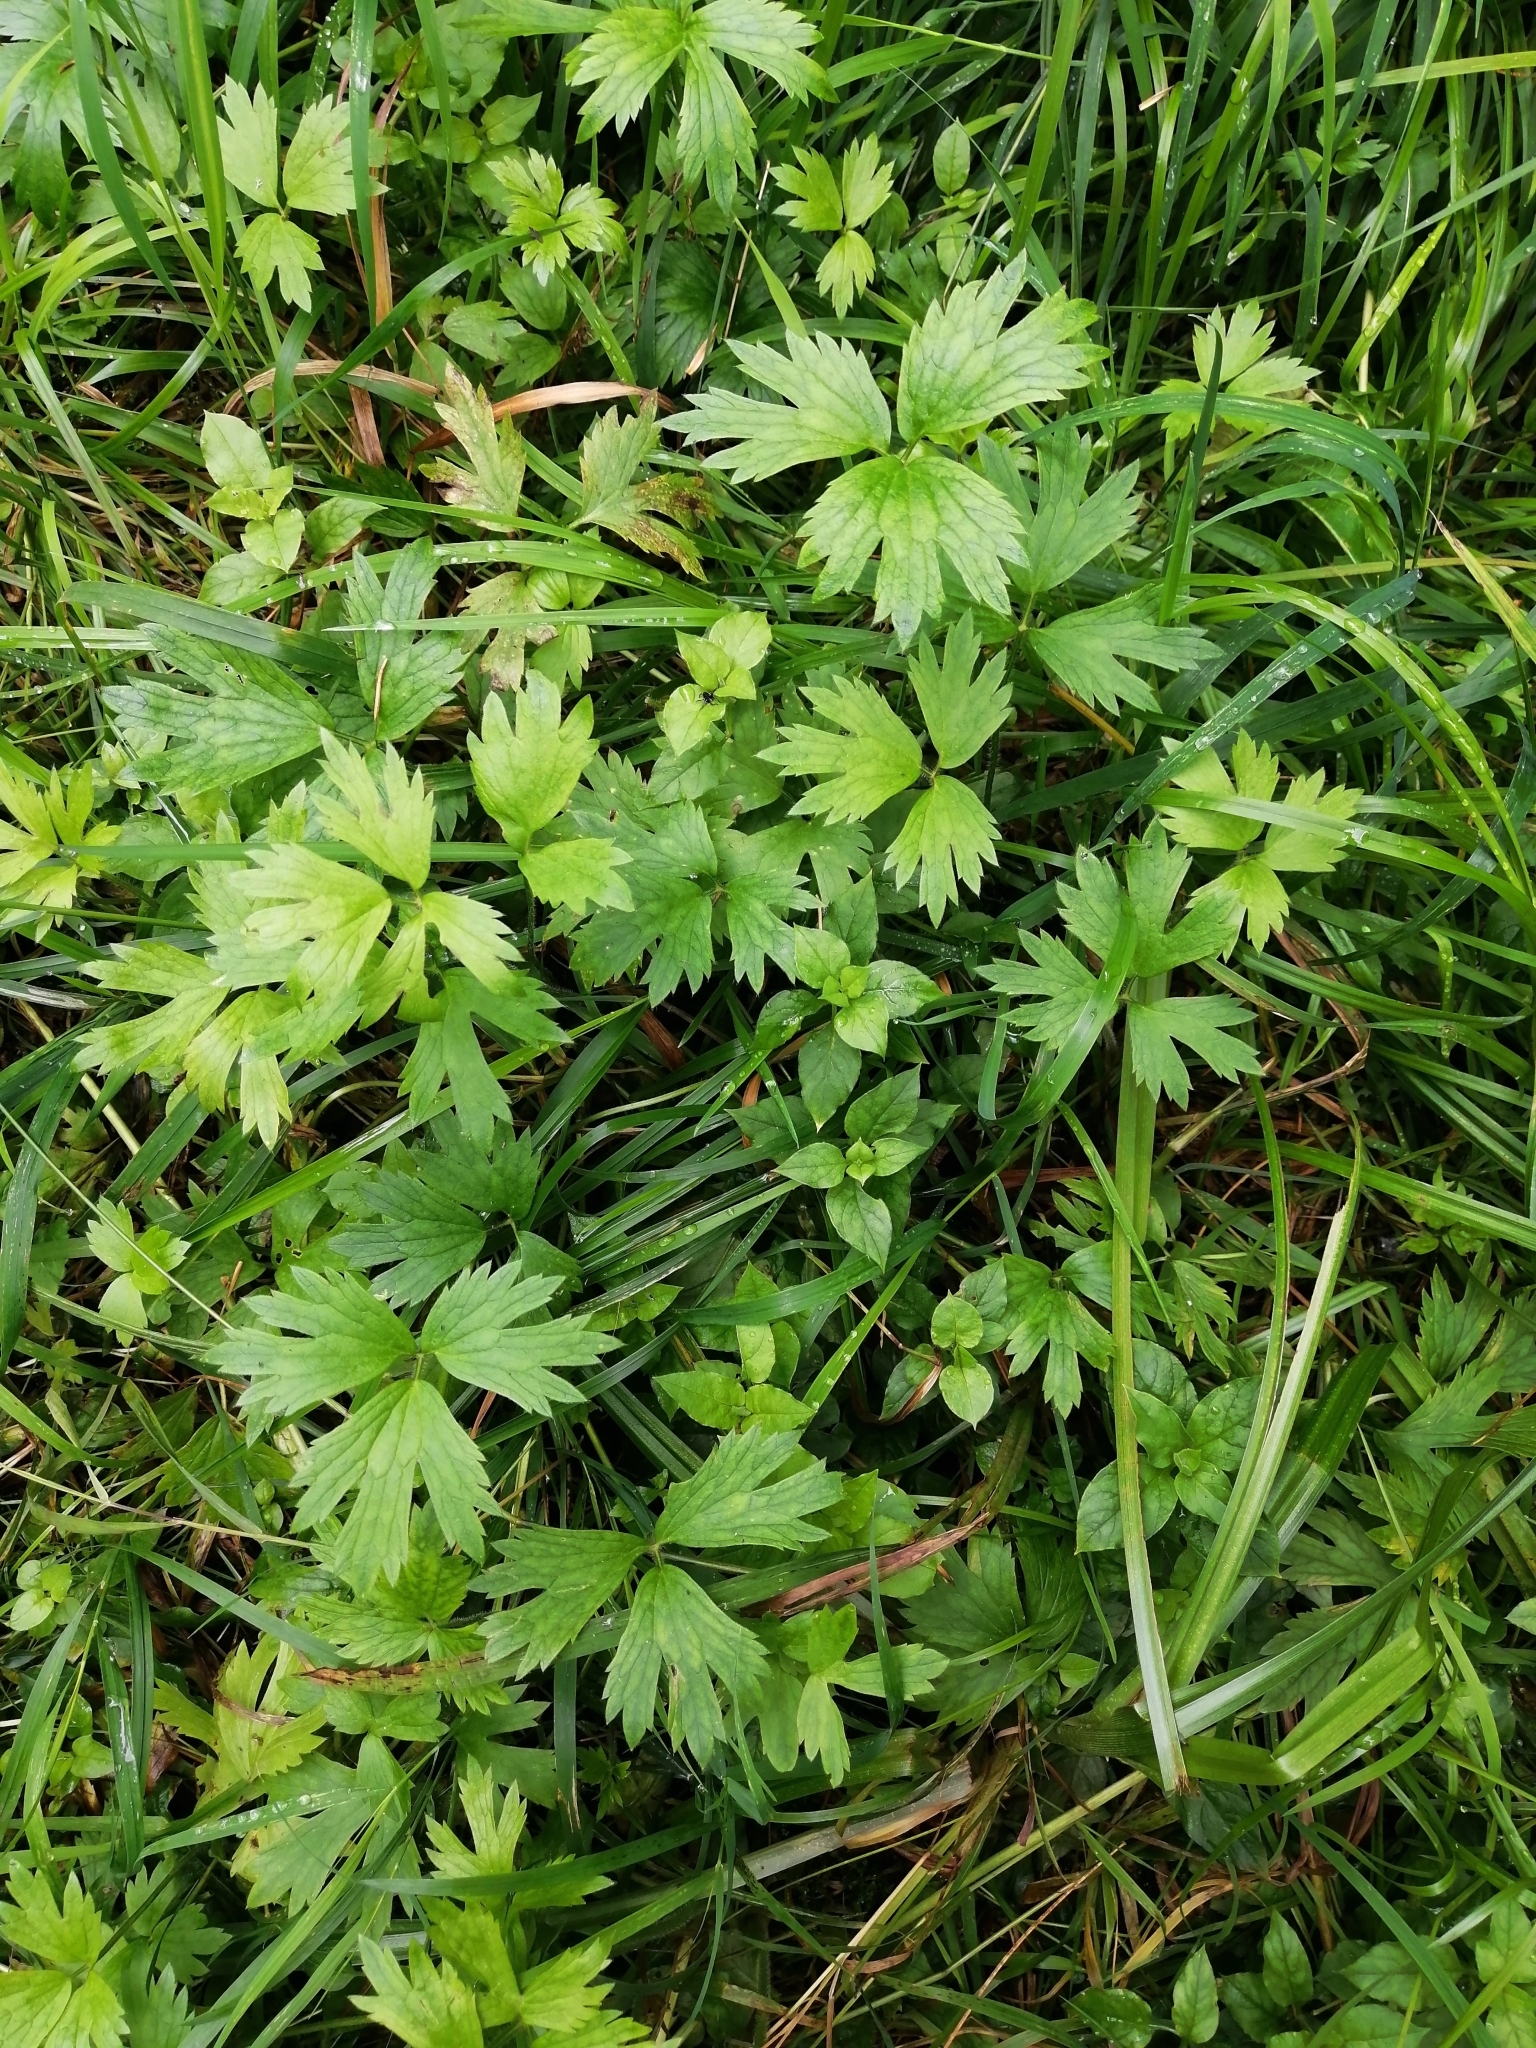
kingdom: Plantae
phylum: Tracheophyta
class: Magnoliopsida
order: Ranunculales
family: Ranunculaceae
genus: Ranunculus
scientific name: Ranunculus repens
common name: Creeping buttercup
